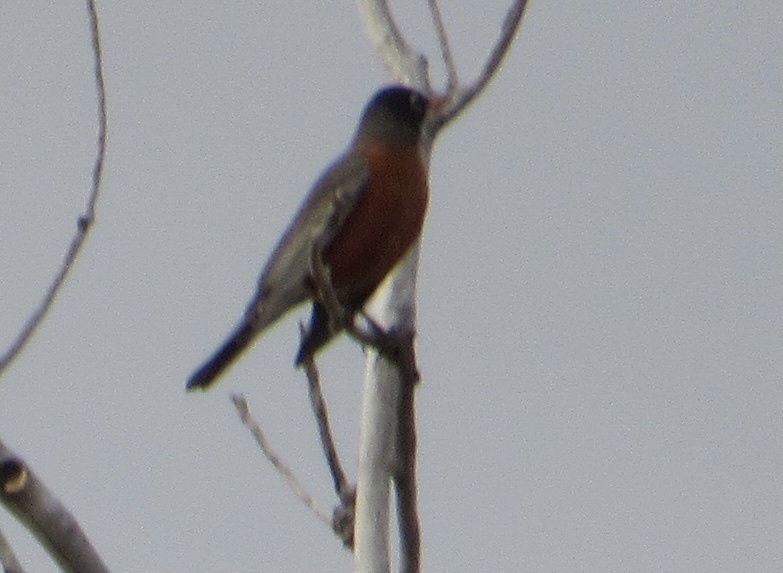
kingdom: Animalia
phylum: Chordata
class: Aves
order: Passeriformes
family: Turdidae
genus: Turdus
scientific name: Turdus migratorius
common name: American robin
